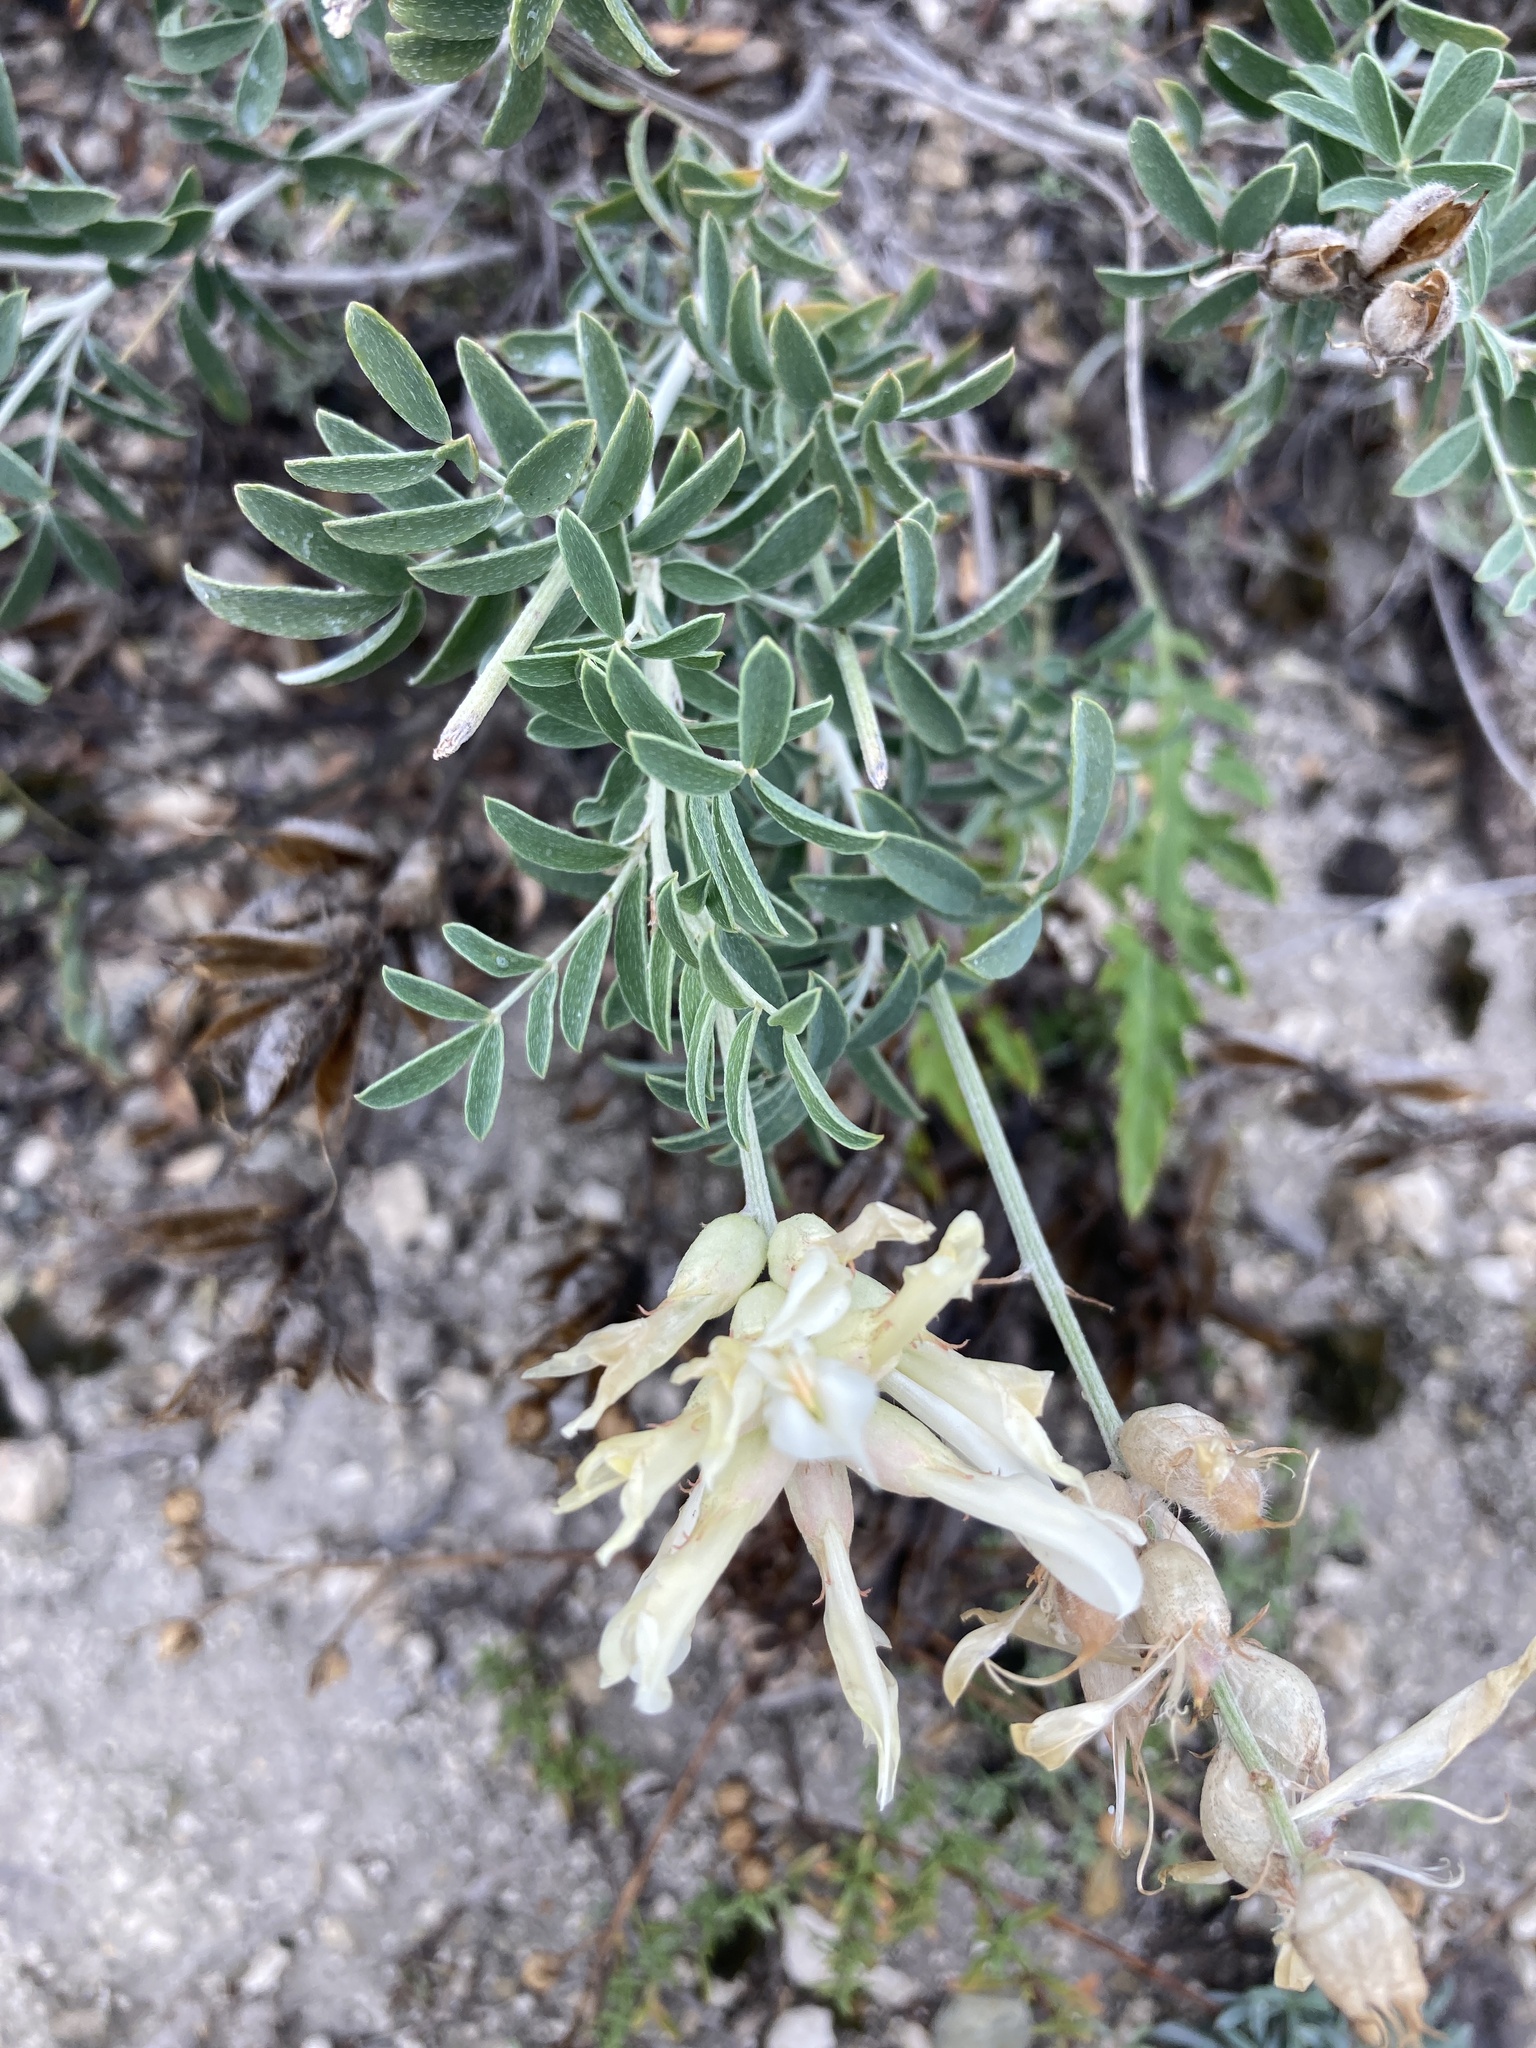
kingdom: Plantae
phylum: Tracheophyta
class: Magnoliopsida
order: Fabales
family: Fabaceae
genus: Astragalus
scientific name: Astragalus albicaulis
